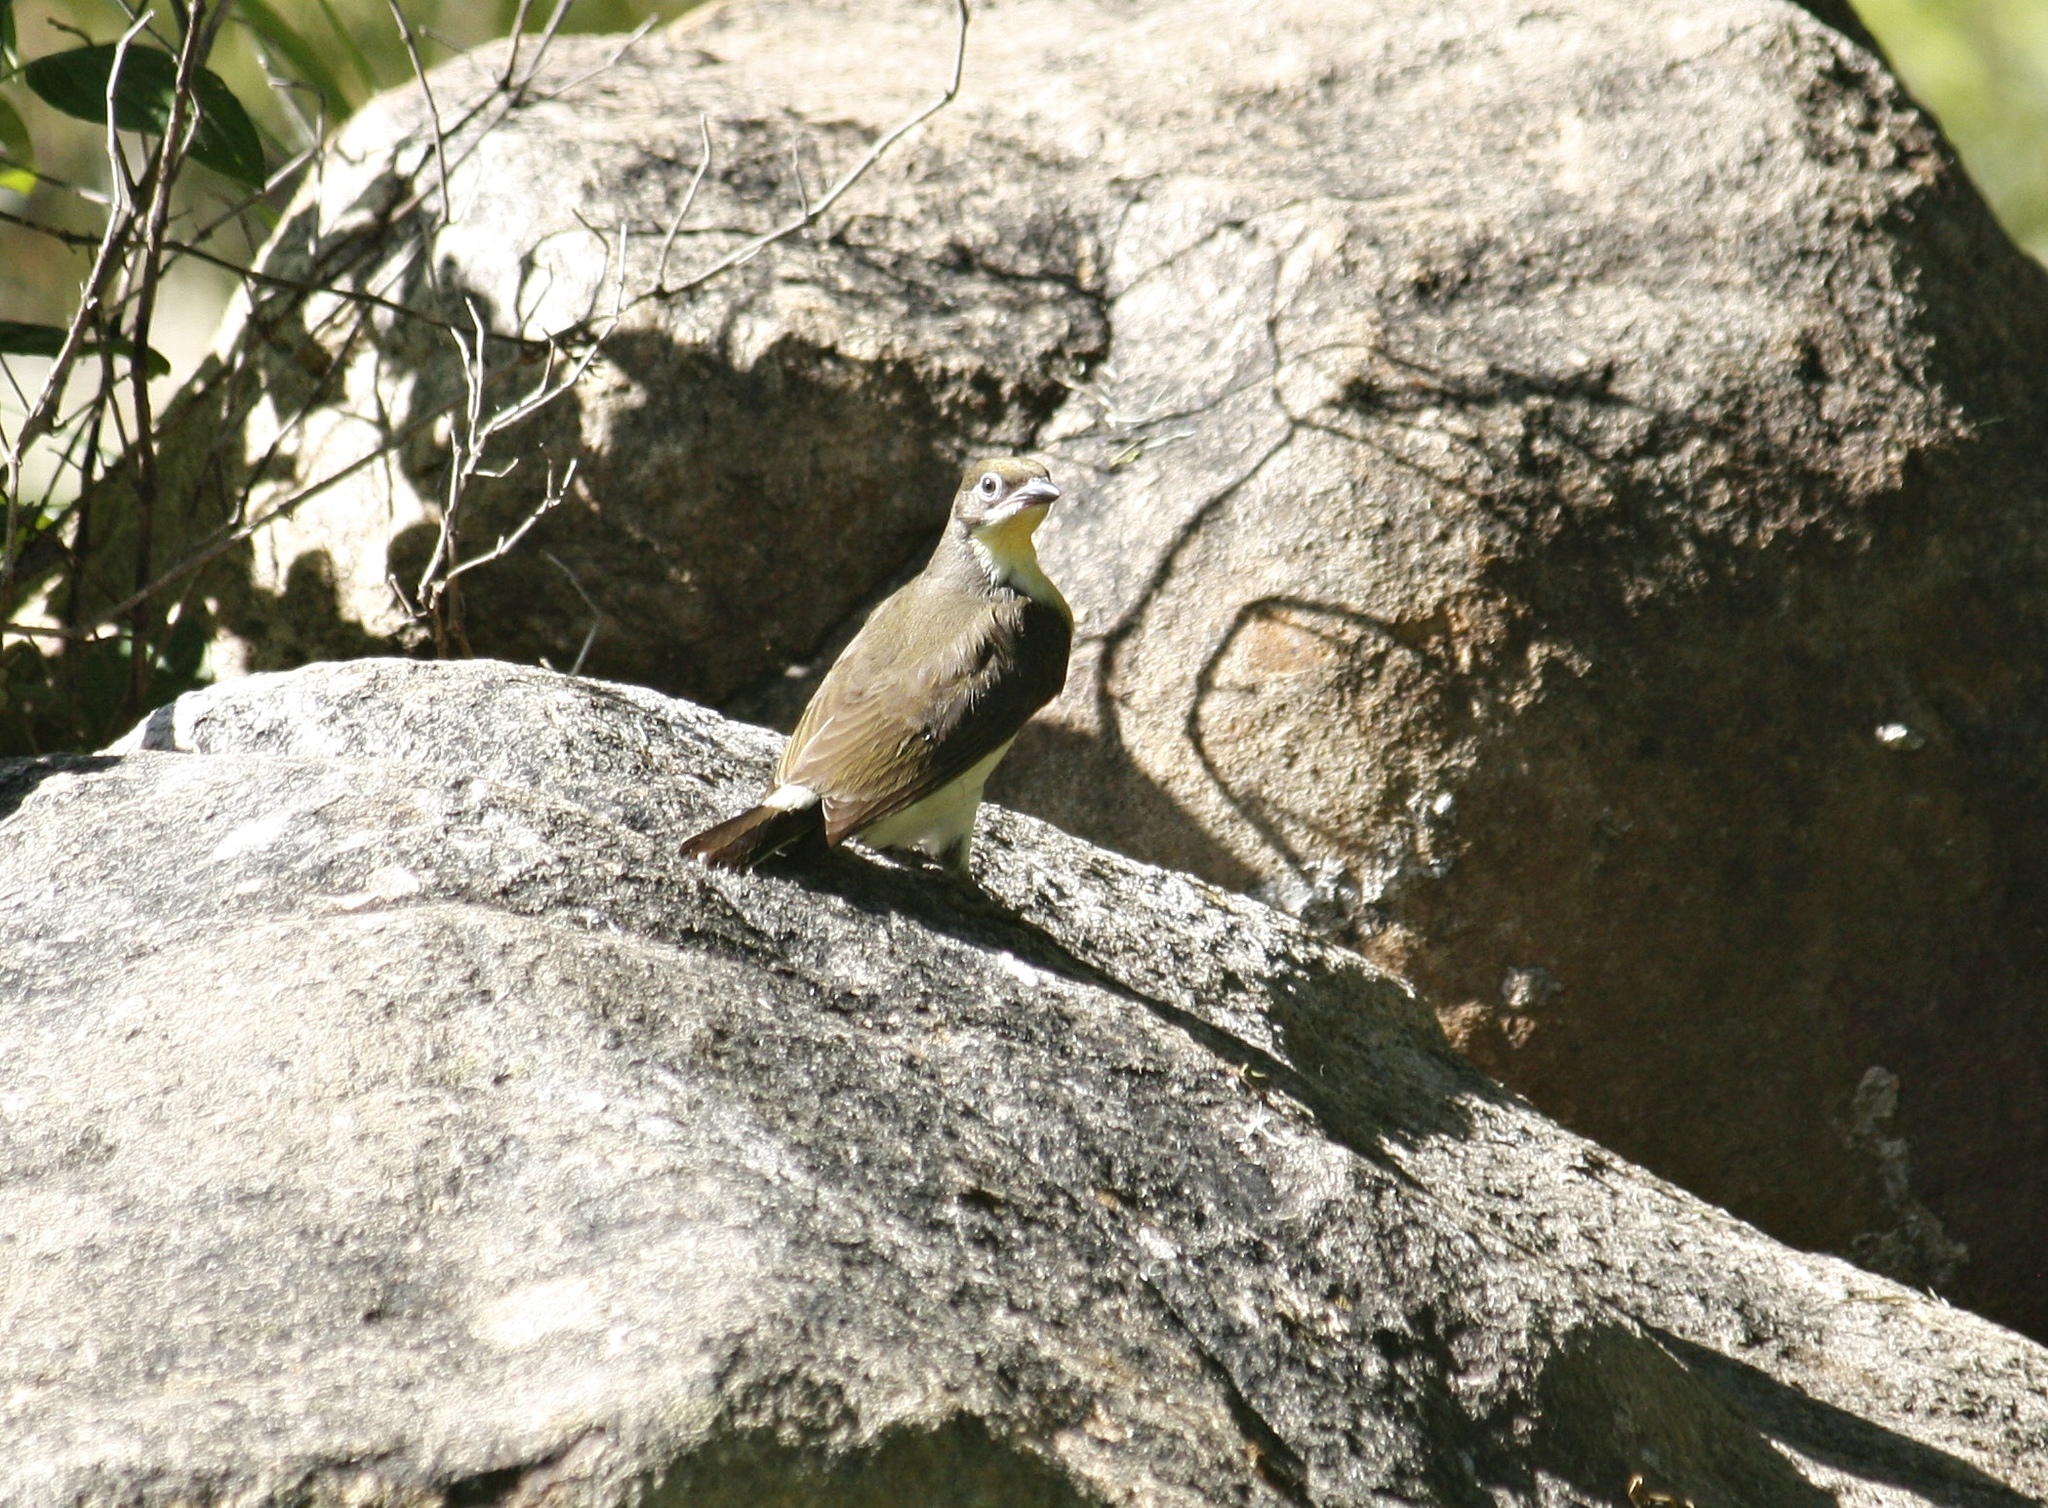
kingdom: Animalia
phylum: Chordata
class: Aves
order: Piciformes
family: Indicatoridae
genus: Indicator
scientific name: Indicator indicator
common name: Greater honeyguide
